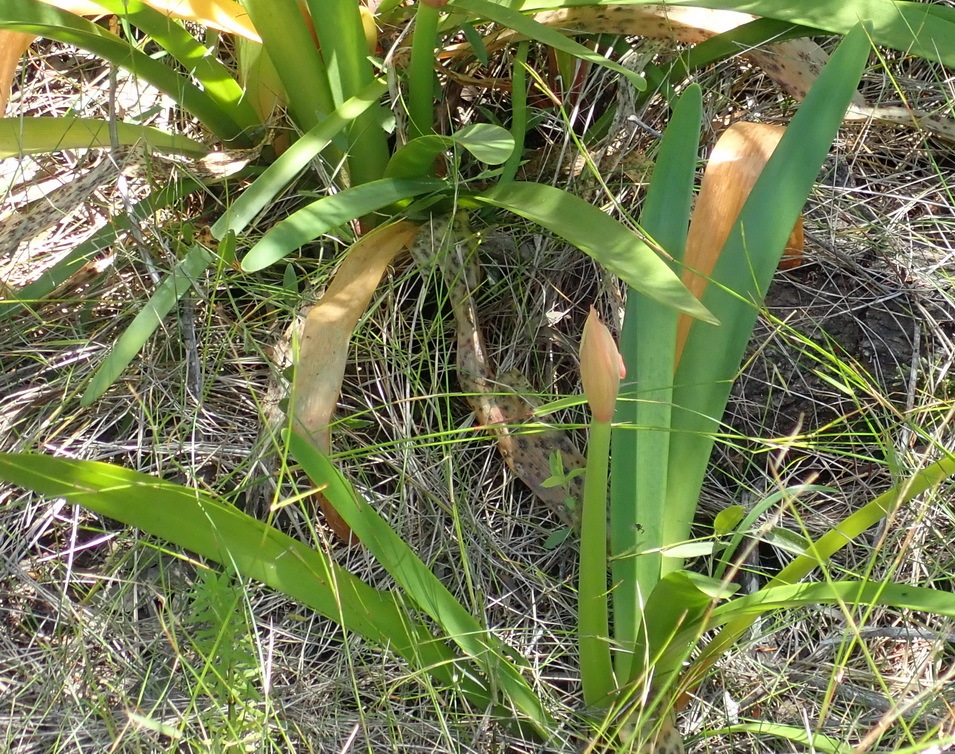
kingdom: Plantae
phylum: Tracheophyta
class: Liliopsida
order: Asparagales
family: Amaryllidaceae
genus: Cyrtanthus
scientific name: Cyrtanthus elatus
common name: Scarborough-lily
